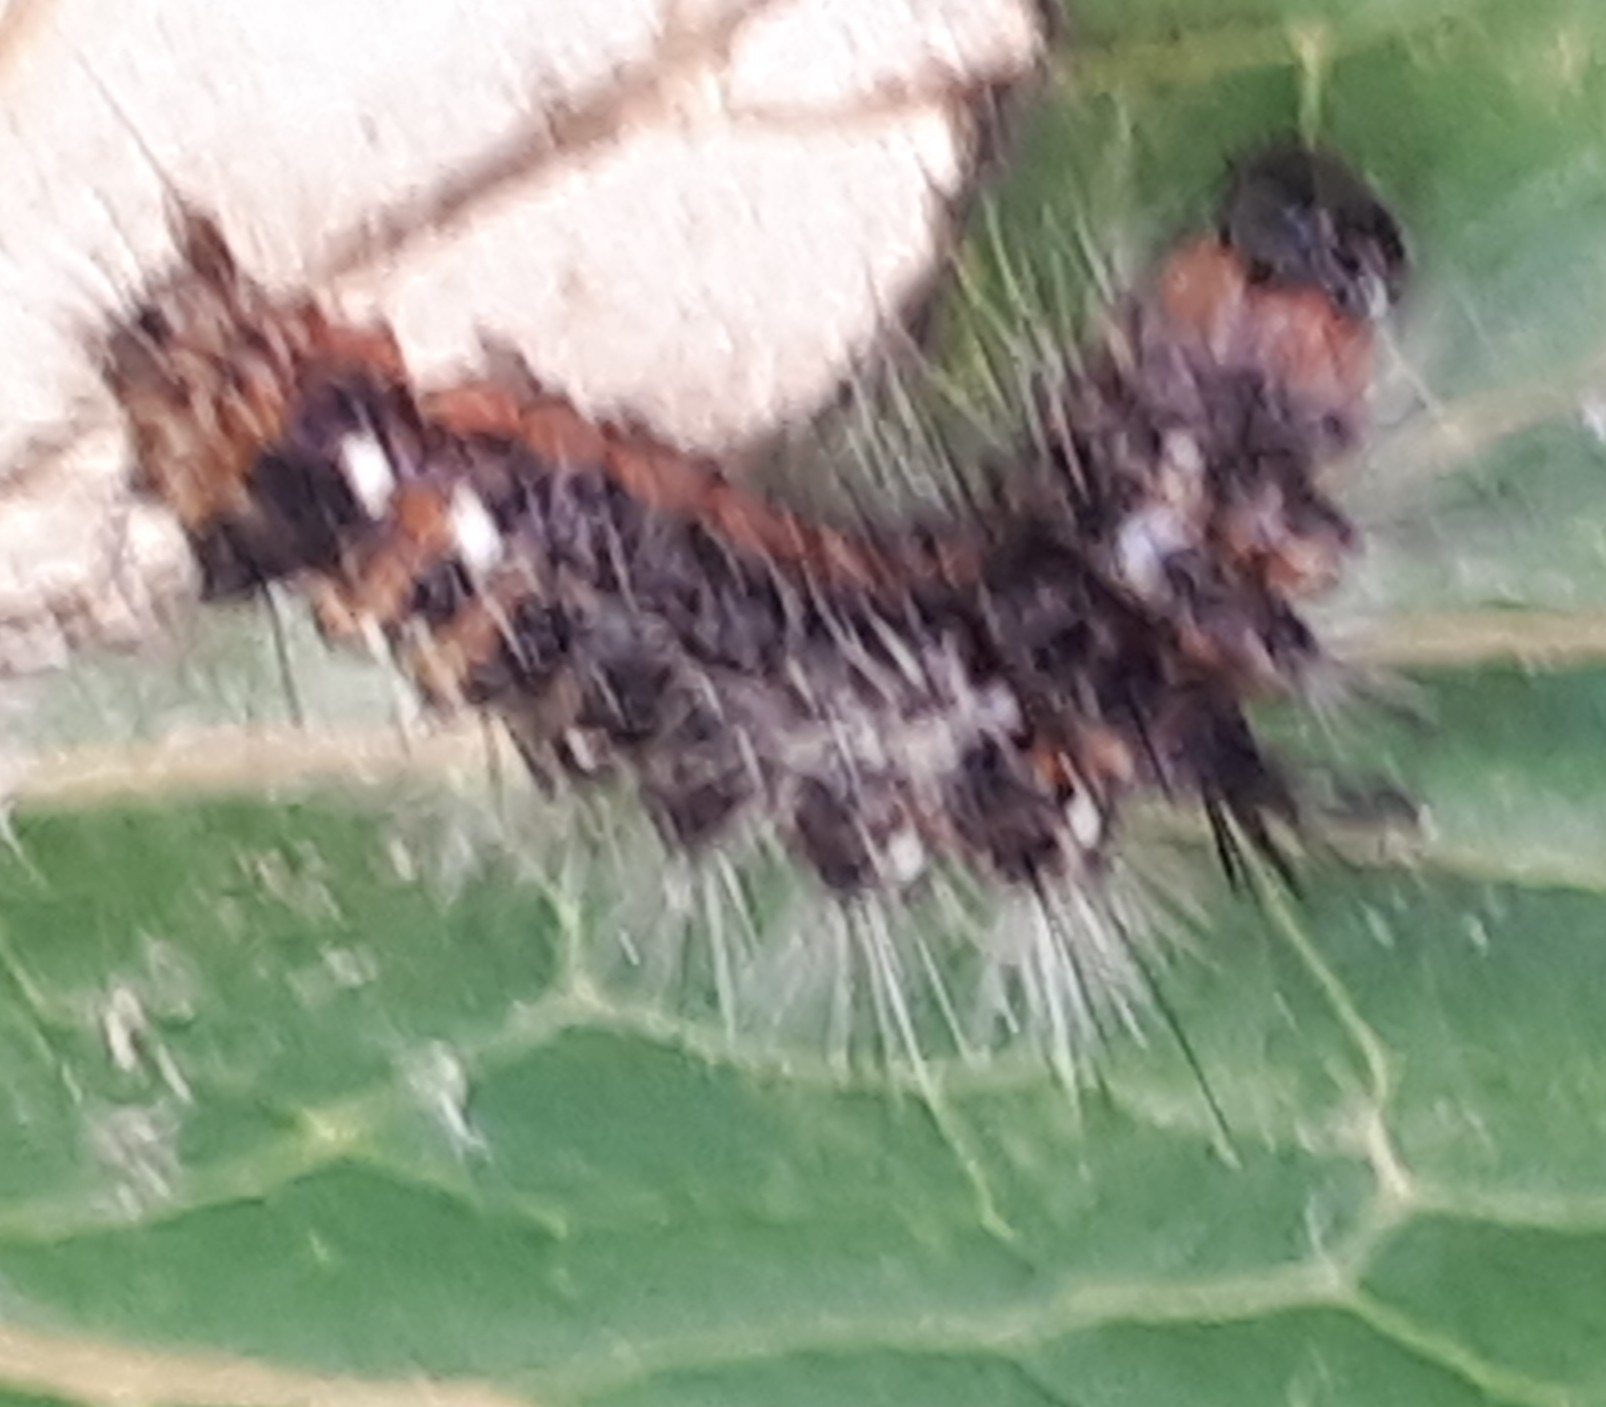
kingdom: Animalia
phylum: Arthropoda
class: Insecta
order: Lepidoptera
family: Noctuidae
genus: Acronicta
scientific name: Acronicta rumicis
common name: Knot grass
